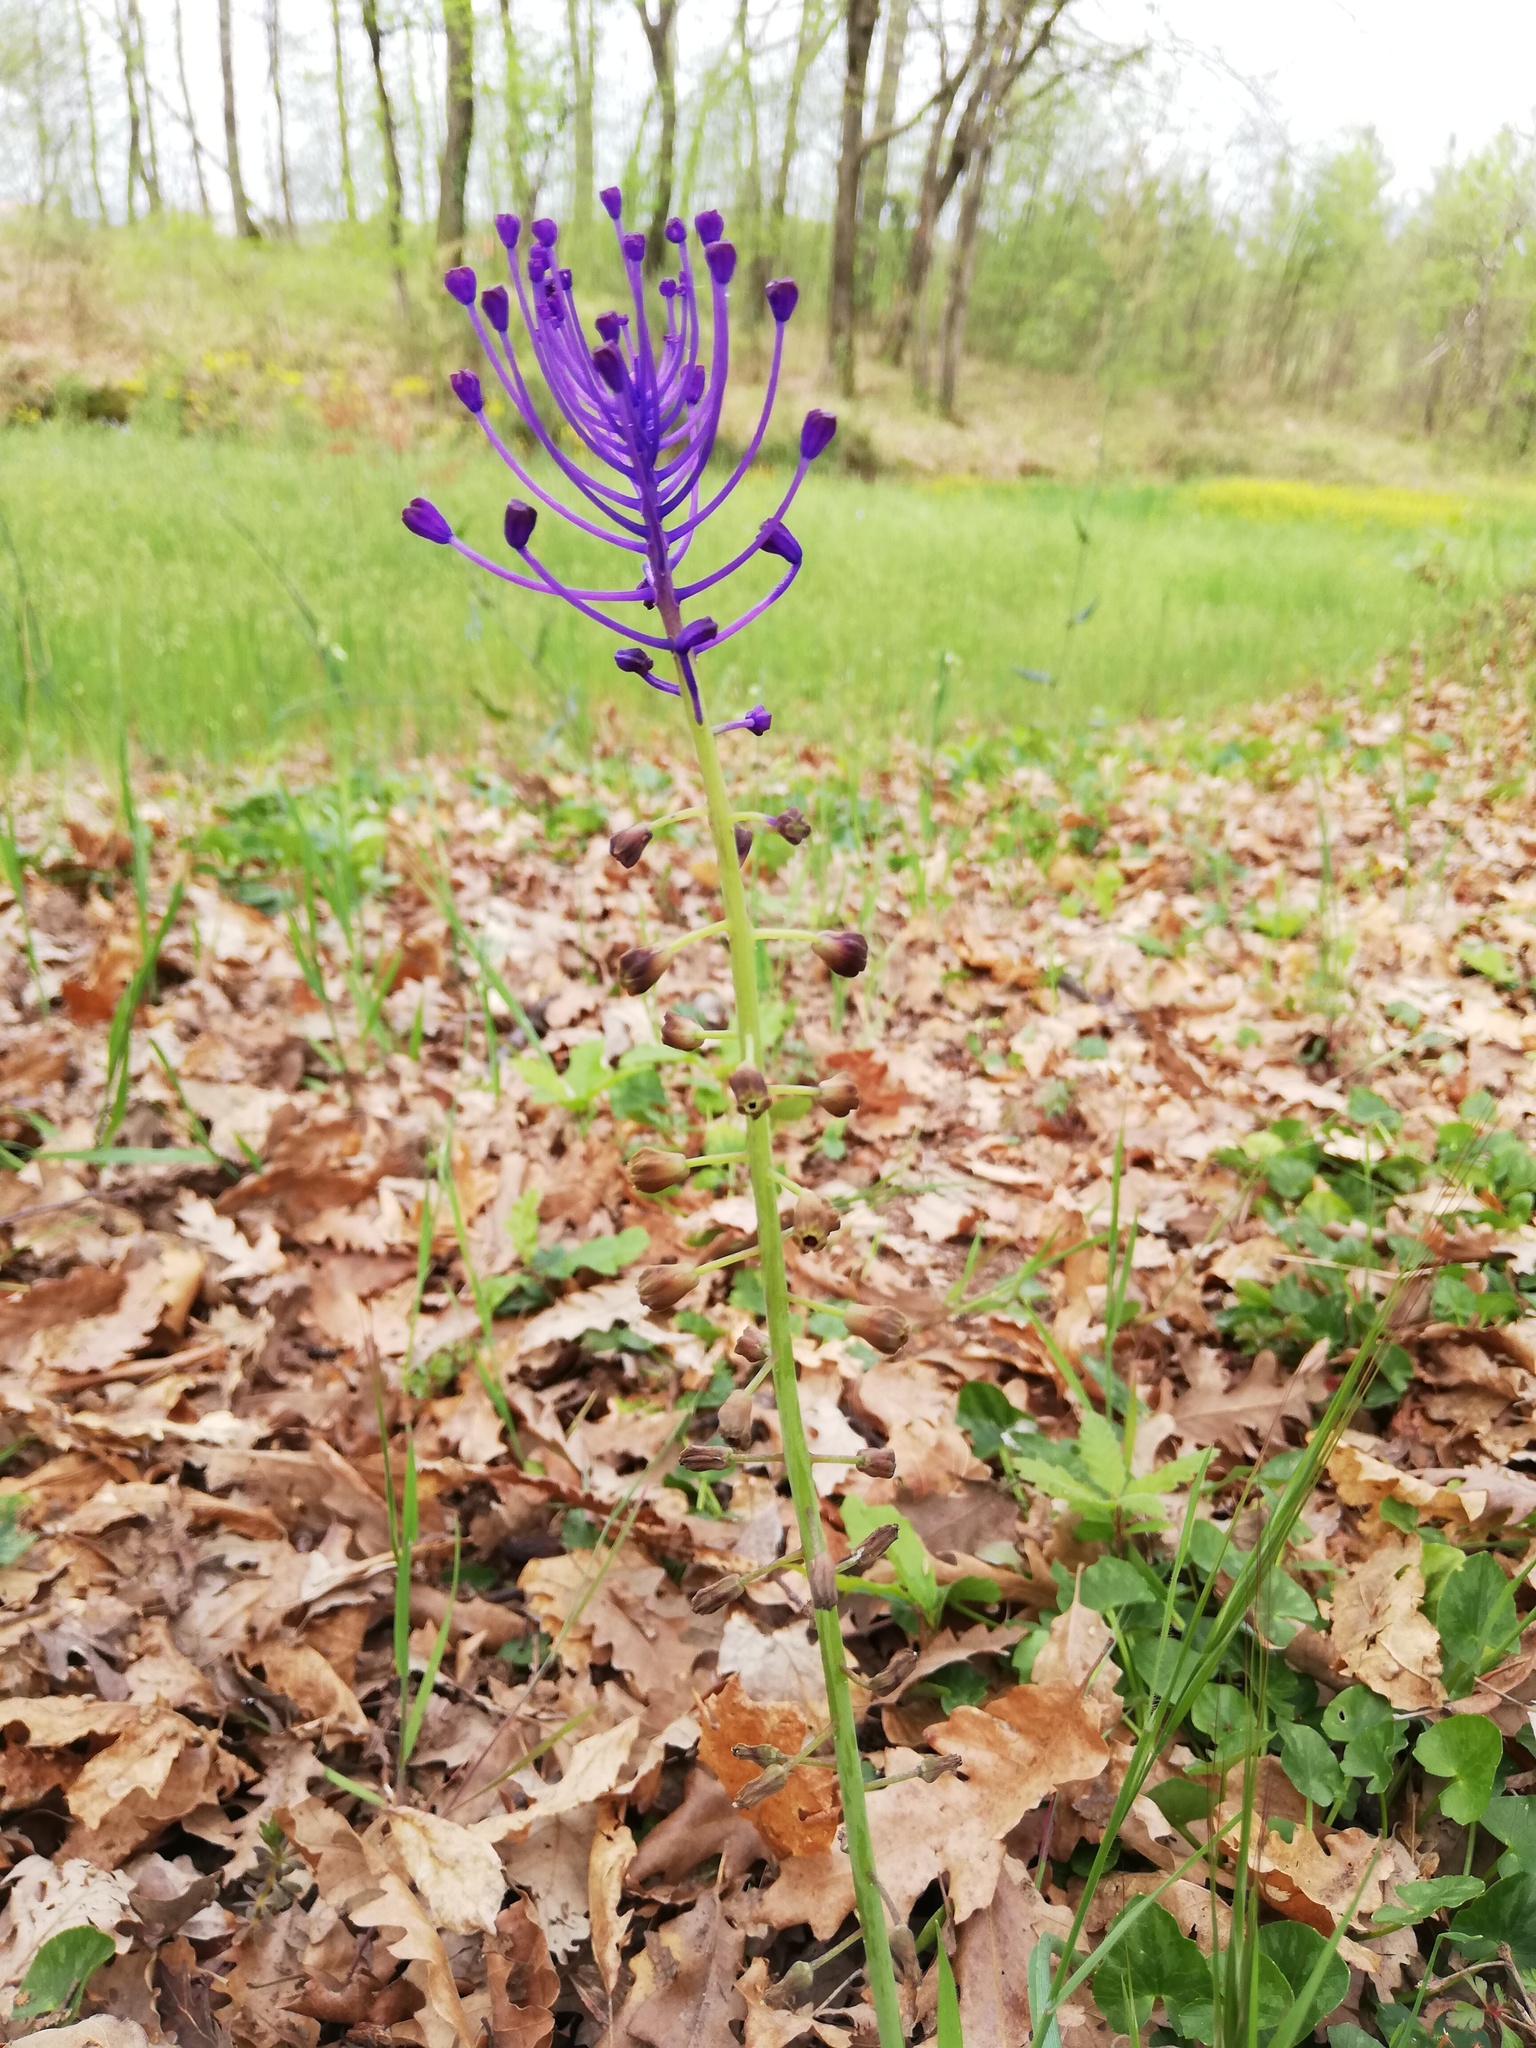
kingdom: Plantae
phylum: Tracheophyta
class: Liliopsida
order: Asparagales
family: Asparagaceae
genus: Muscari
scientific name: Muscari comosum
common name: Tassel hyacinth
